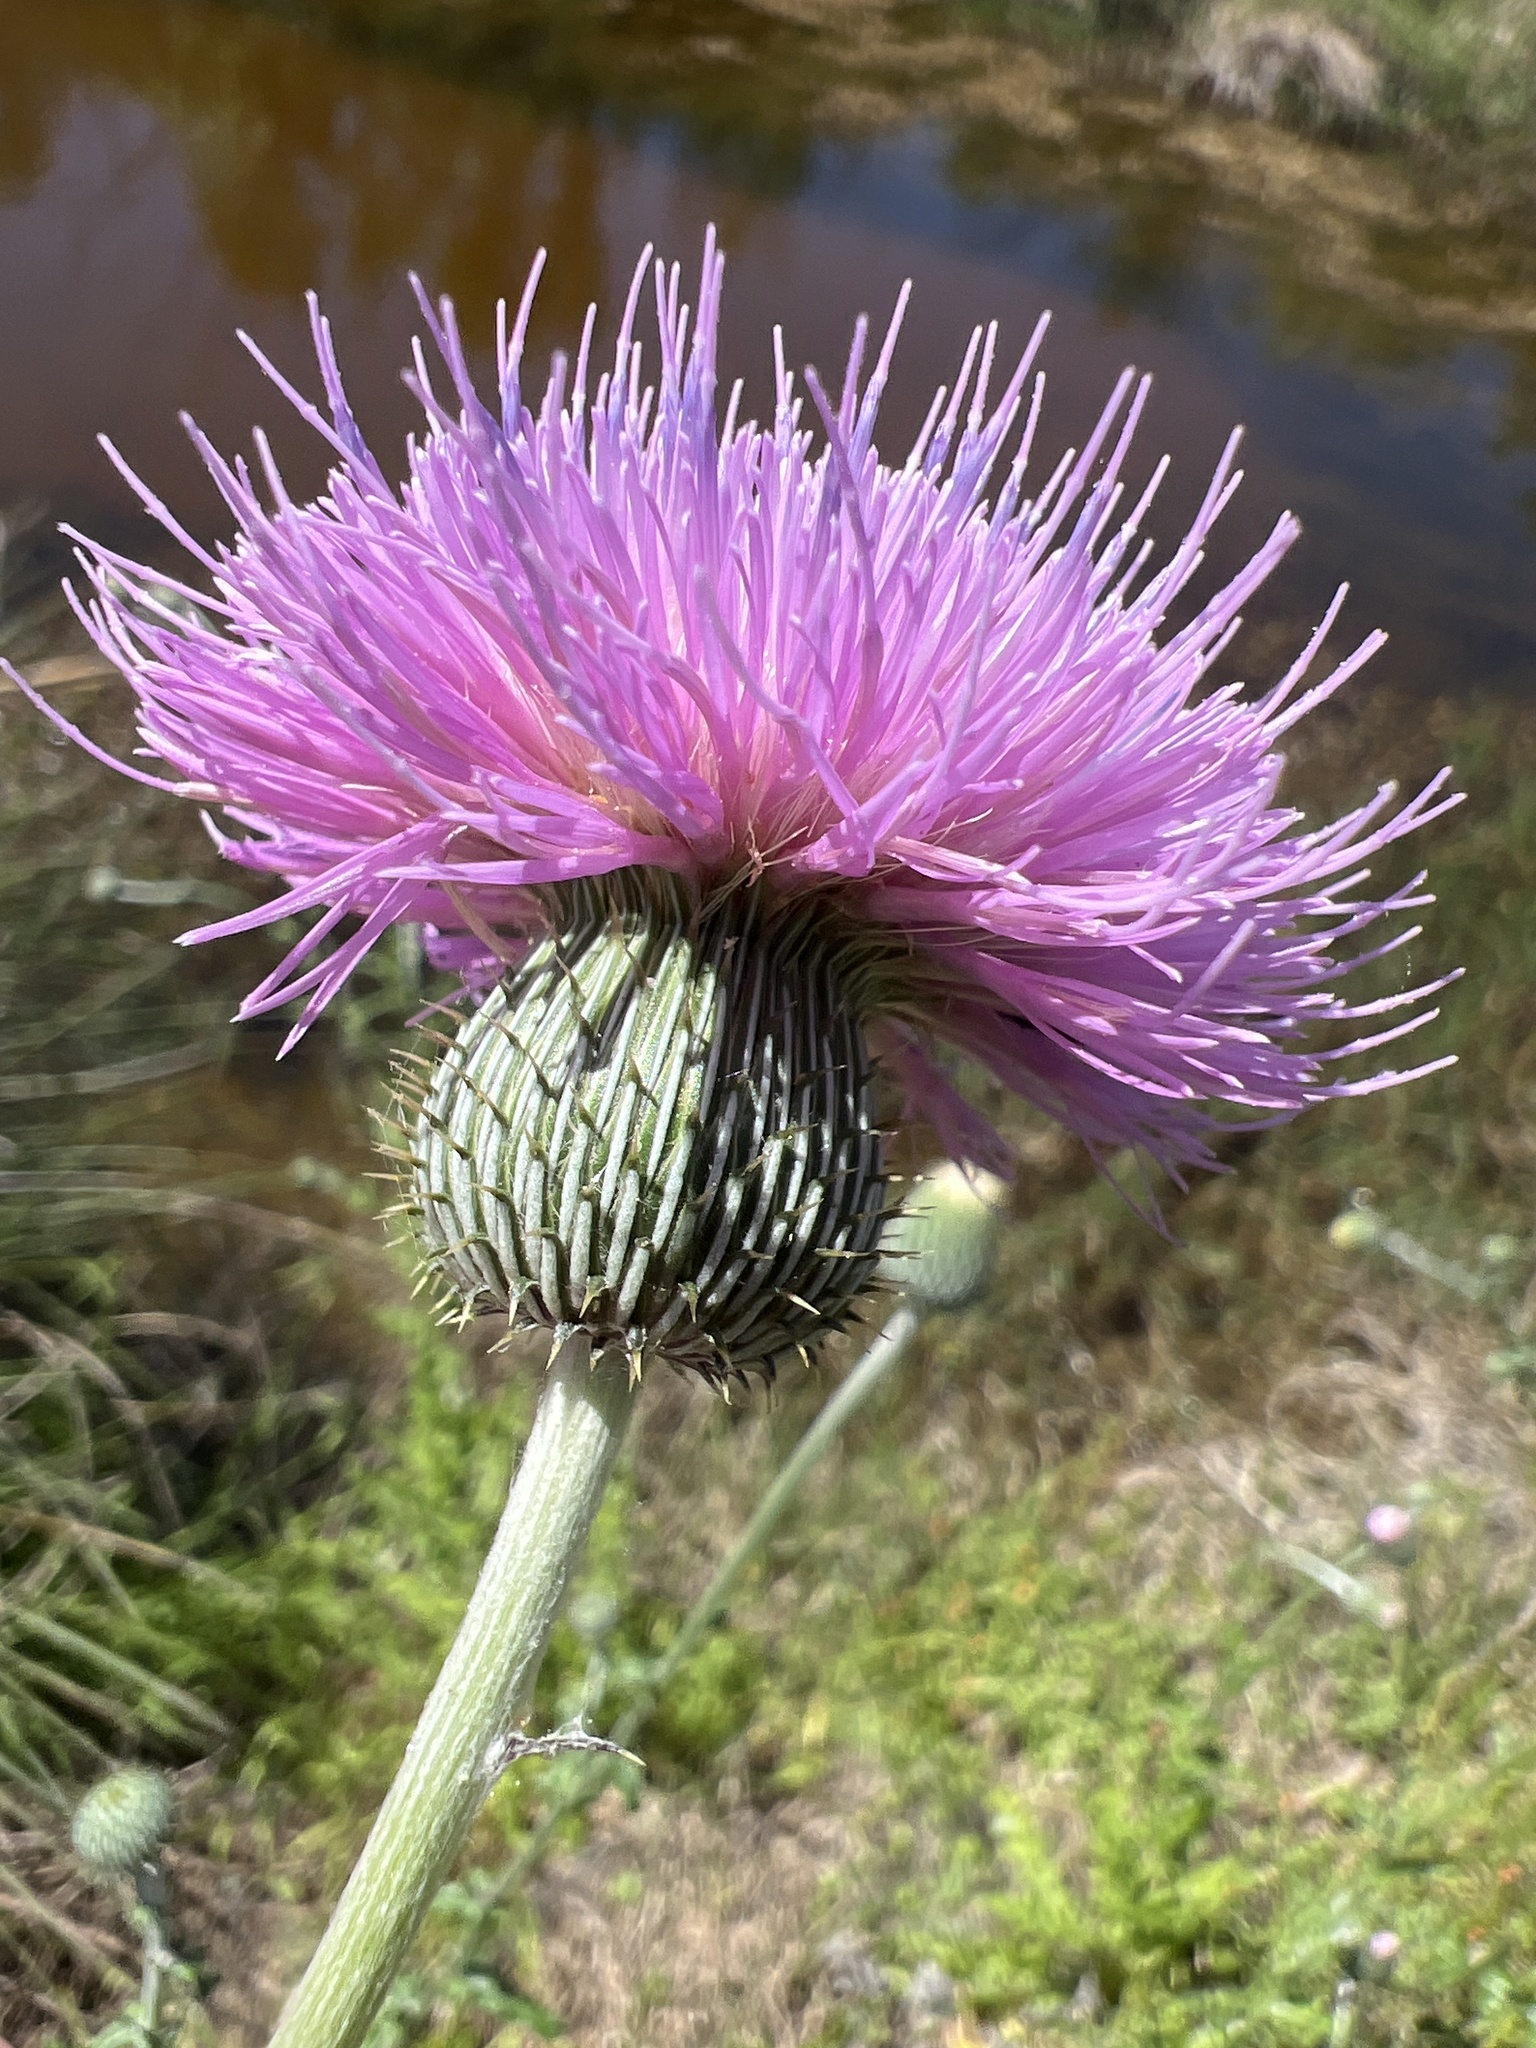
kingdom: Plantae
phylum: Tracheophyta
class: Magnoliopsida
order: Asterales
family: Asteraceae
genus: Cirsium
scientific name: Cirsium texanum
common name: Texas purple thistle
